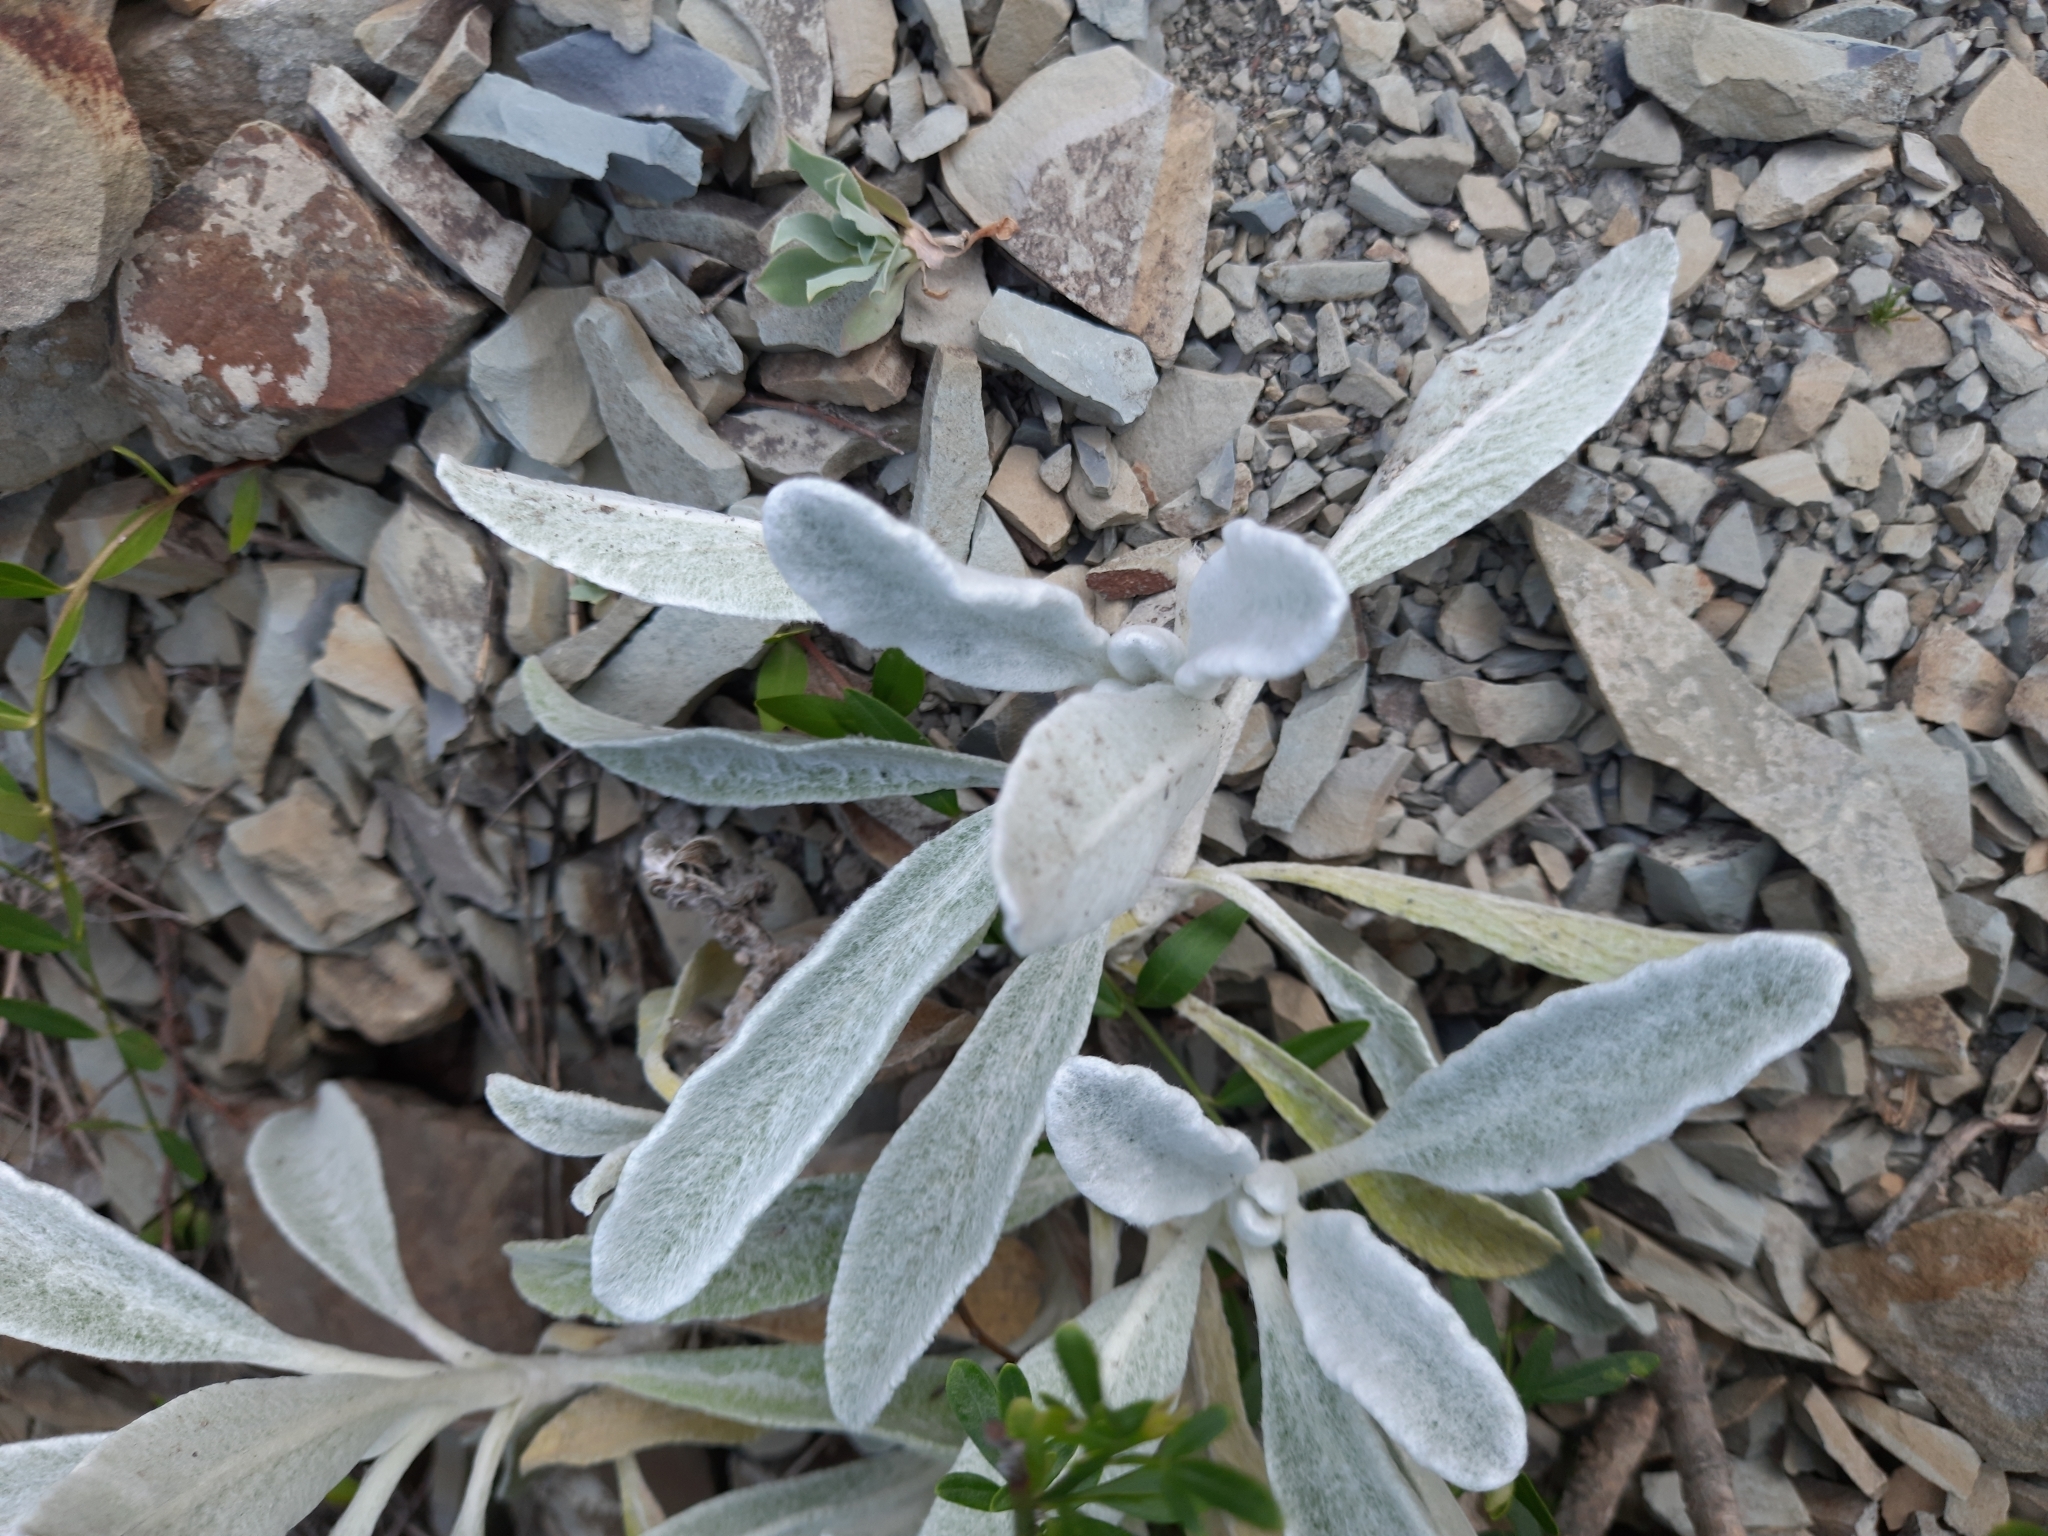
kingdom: Plantae
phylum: Tracheophyta
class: Magnoliopsida
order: Lamiales
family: Lamiaceae
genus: Sideritis
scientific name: Sideritis euxina
